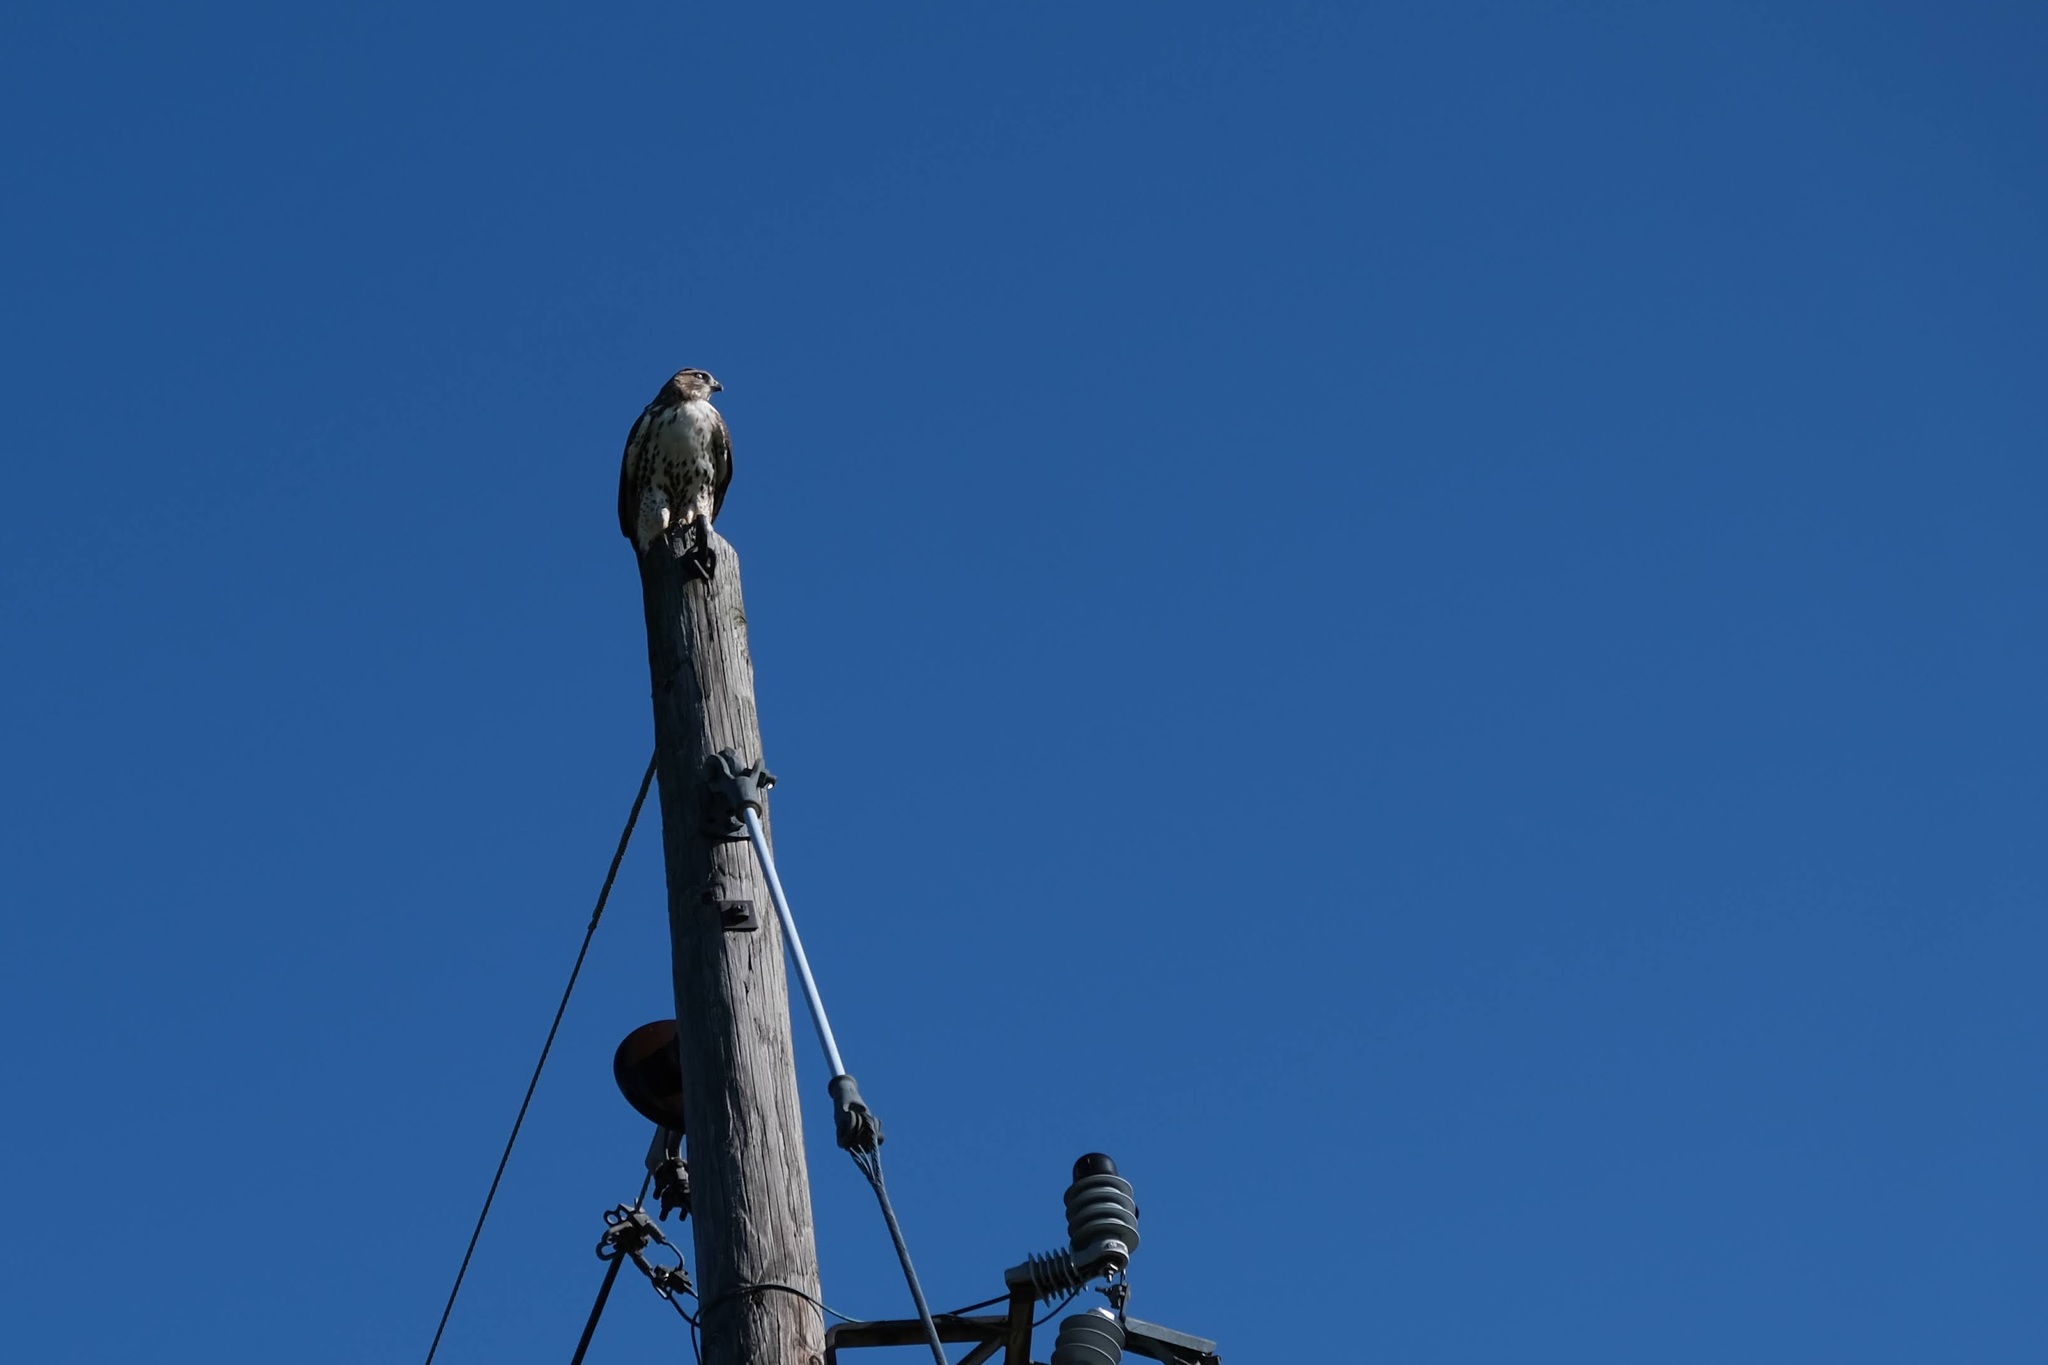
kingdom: Animalia
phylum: Chordata
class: Aves
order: Accipitriformes
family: Accipitridae
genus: Buteo
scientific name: Buteo jamaicensis
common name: Red-tailed hawk
